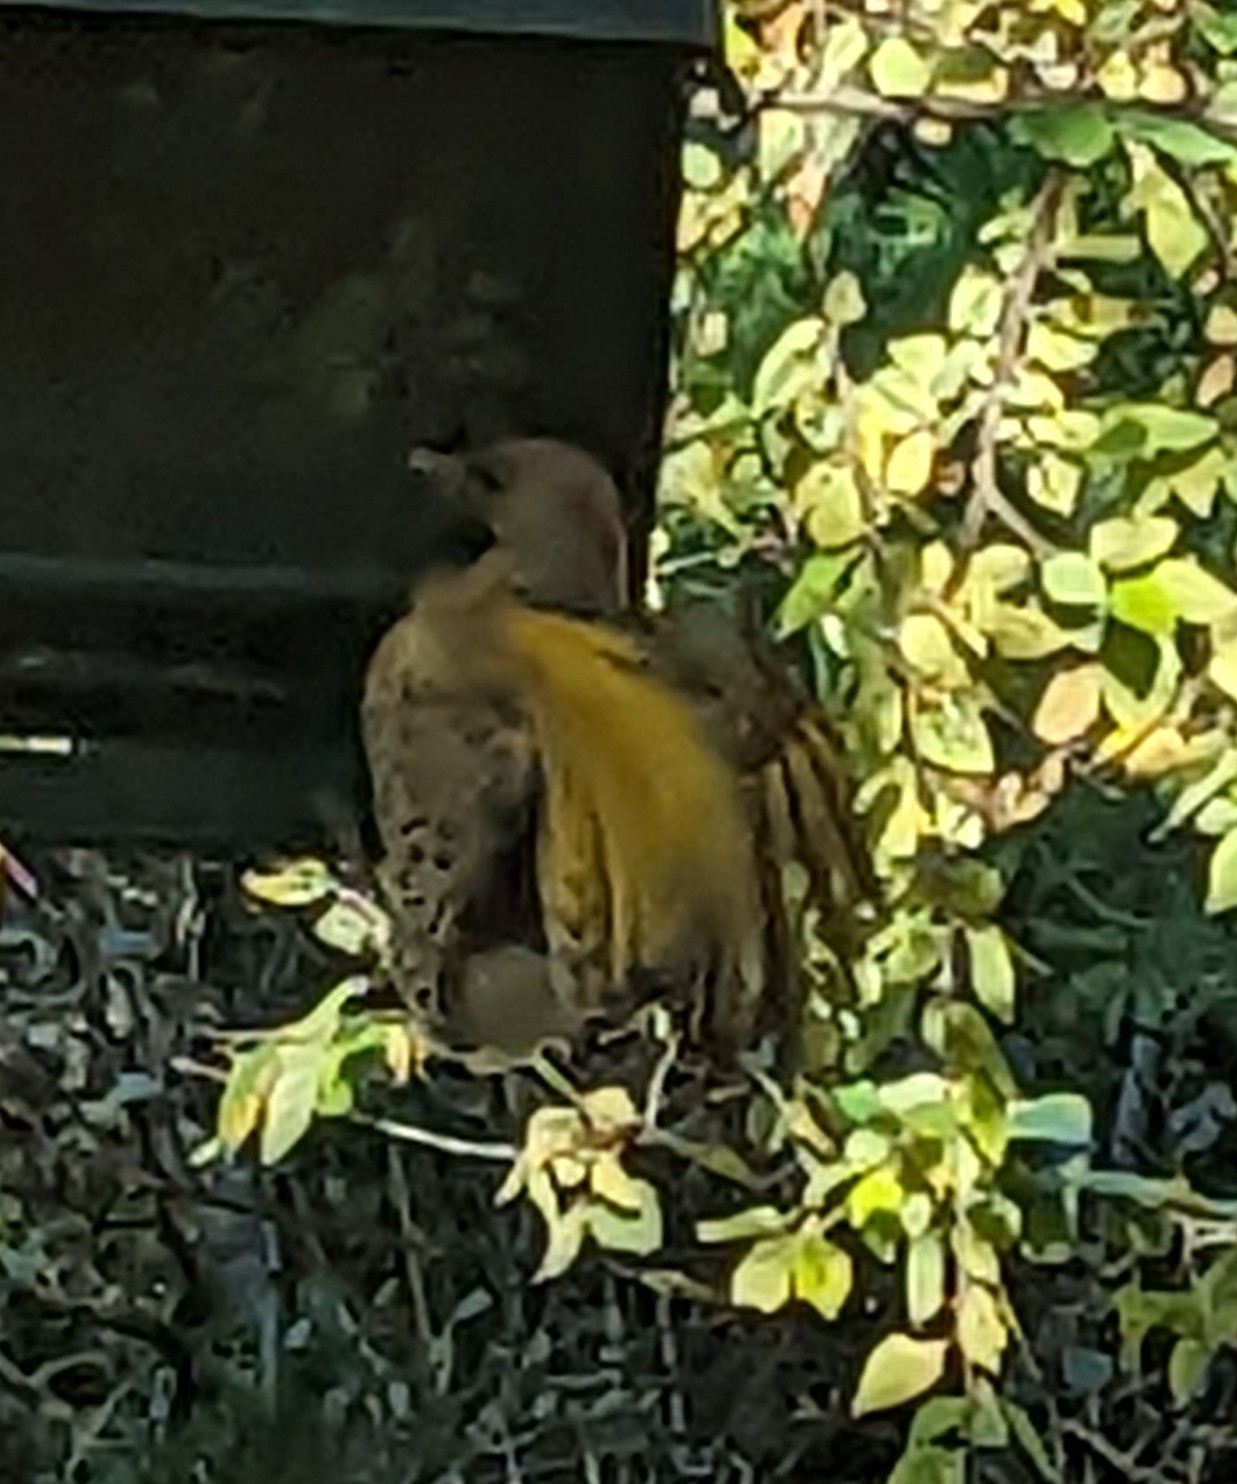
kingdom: Animalia
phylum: Chordata
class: Aves
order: Piciformes
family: Picidae
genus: Colaptes
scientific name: Colaptes auratus
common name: Northern flicker
